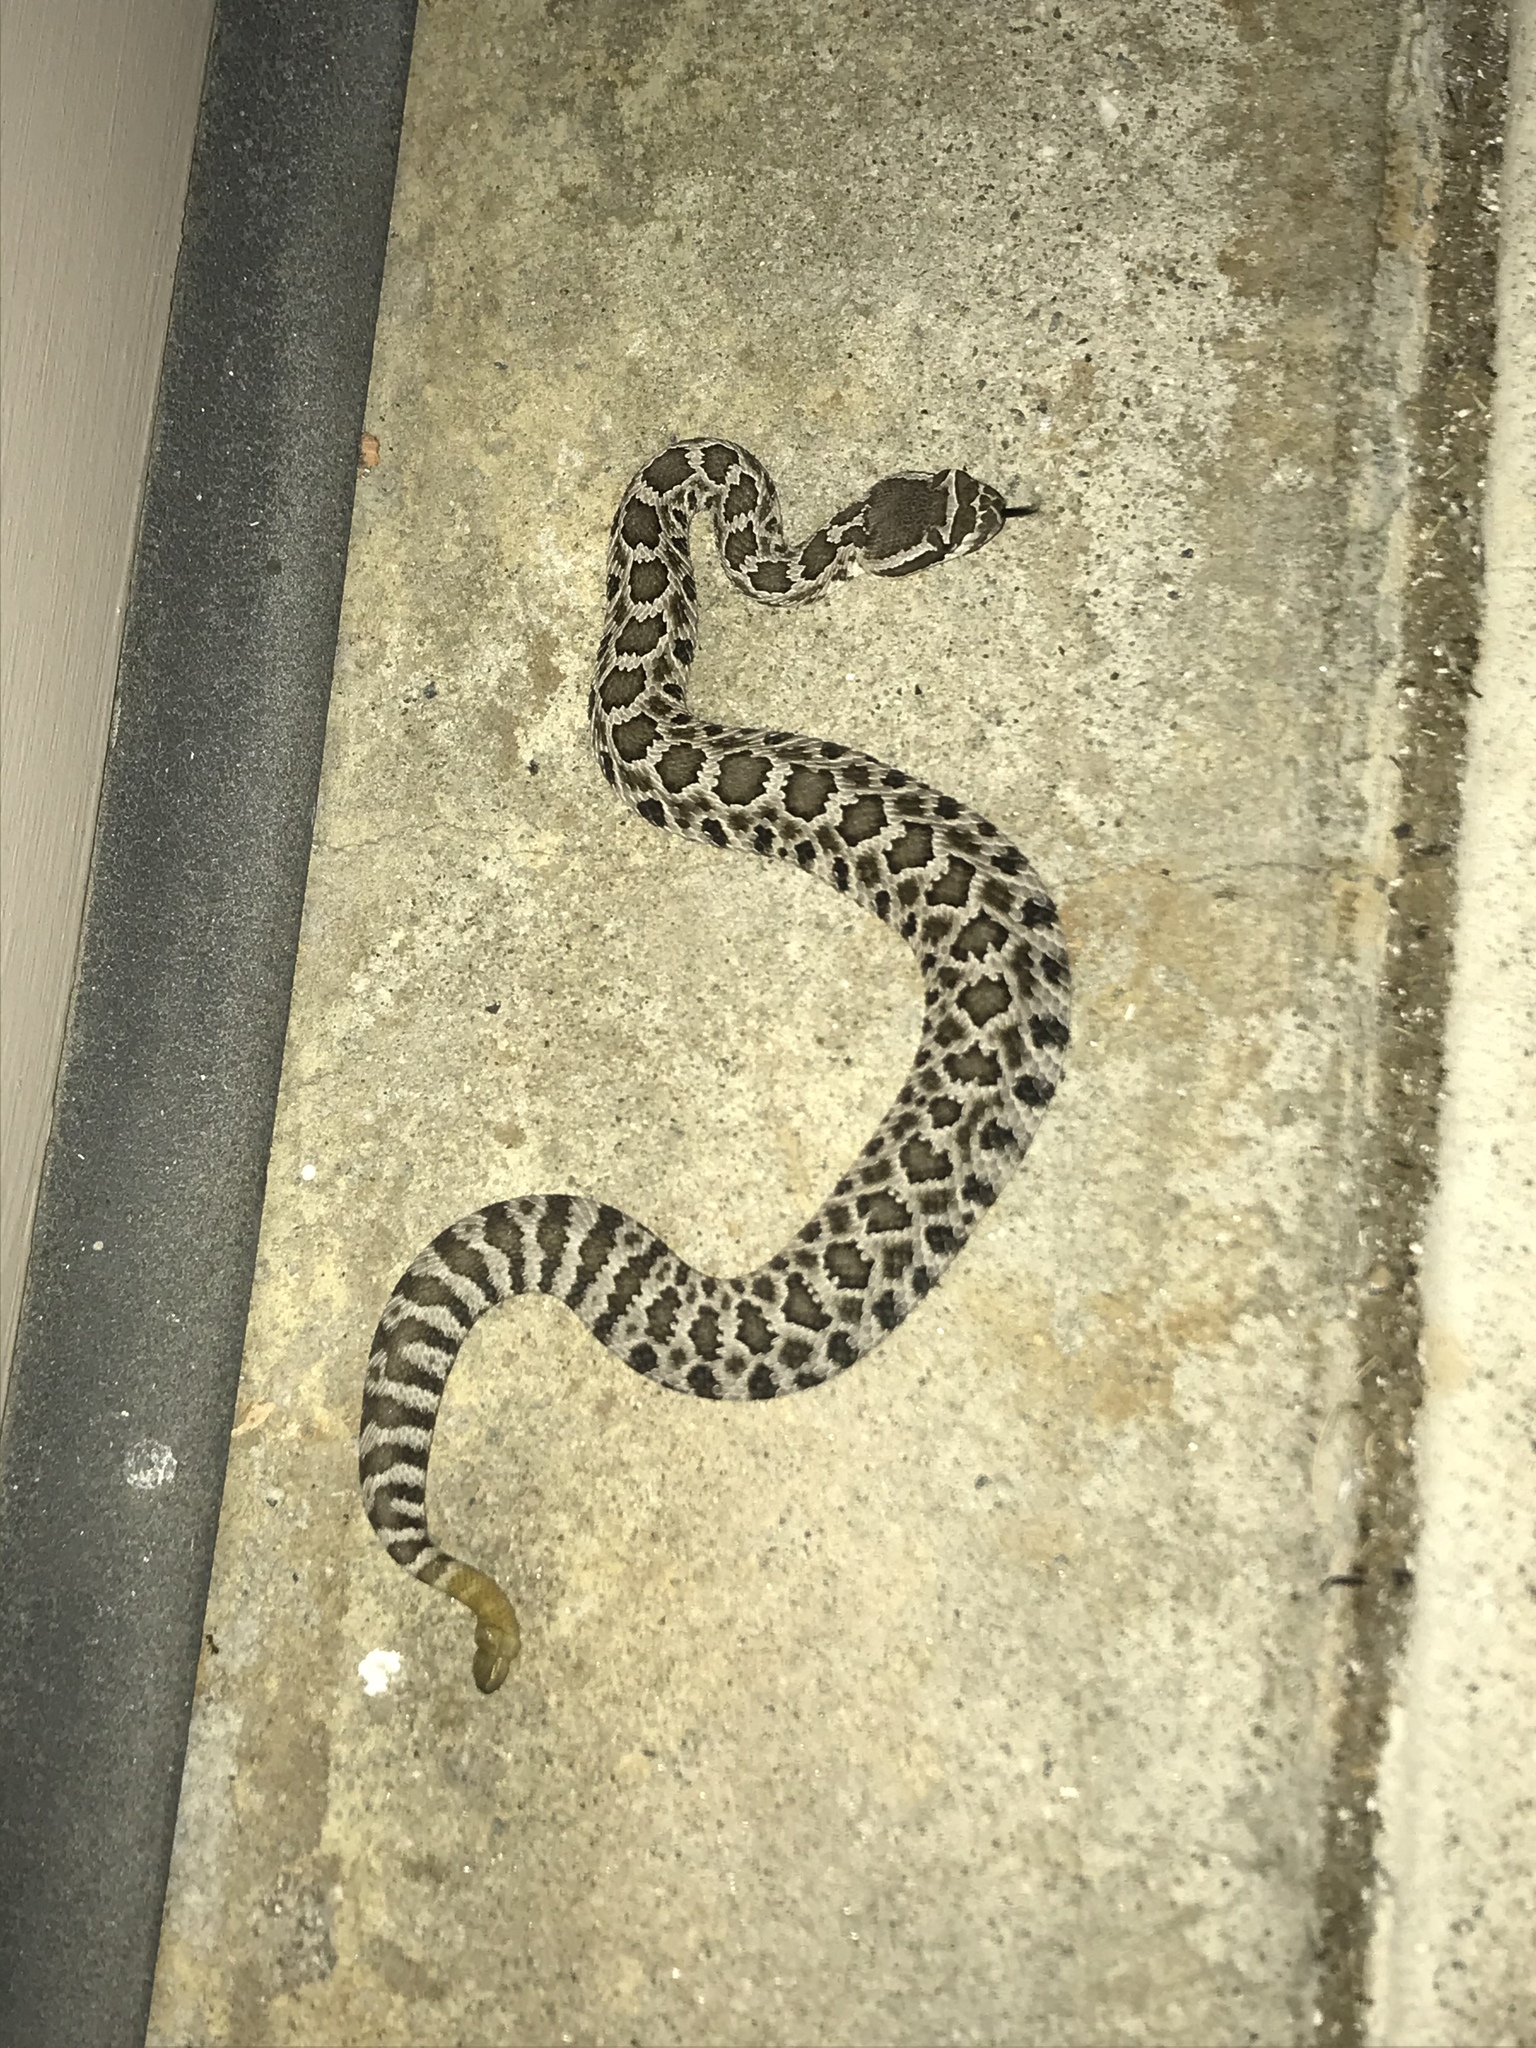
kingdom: Animalia
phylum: Chordata
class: Squamata
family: Viperidae
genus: Crotalus
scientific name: Crotalus oreganus
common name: Abyssus
